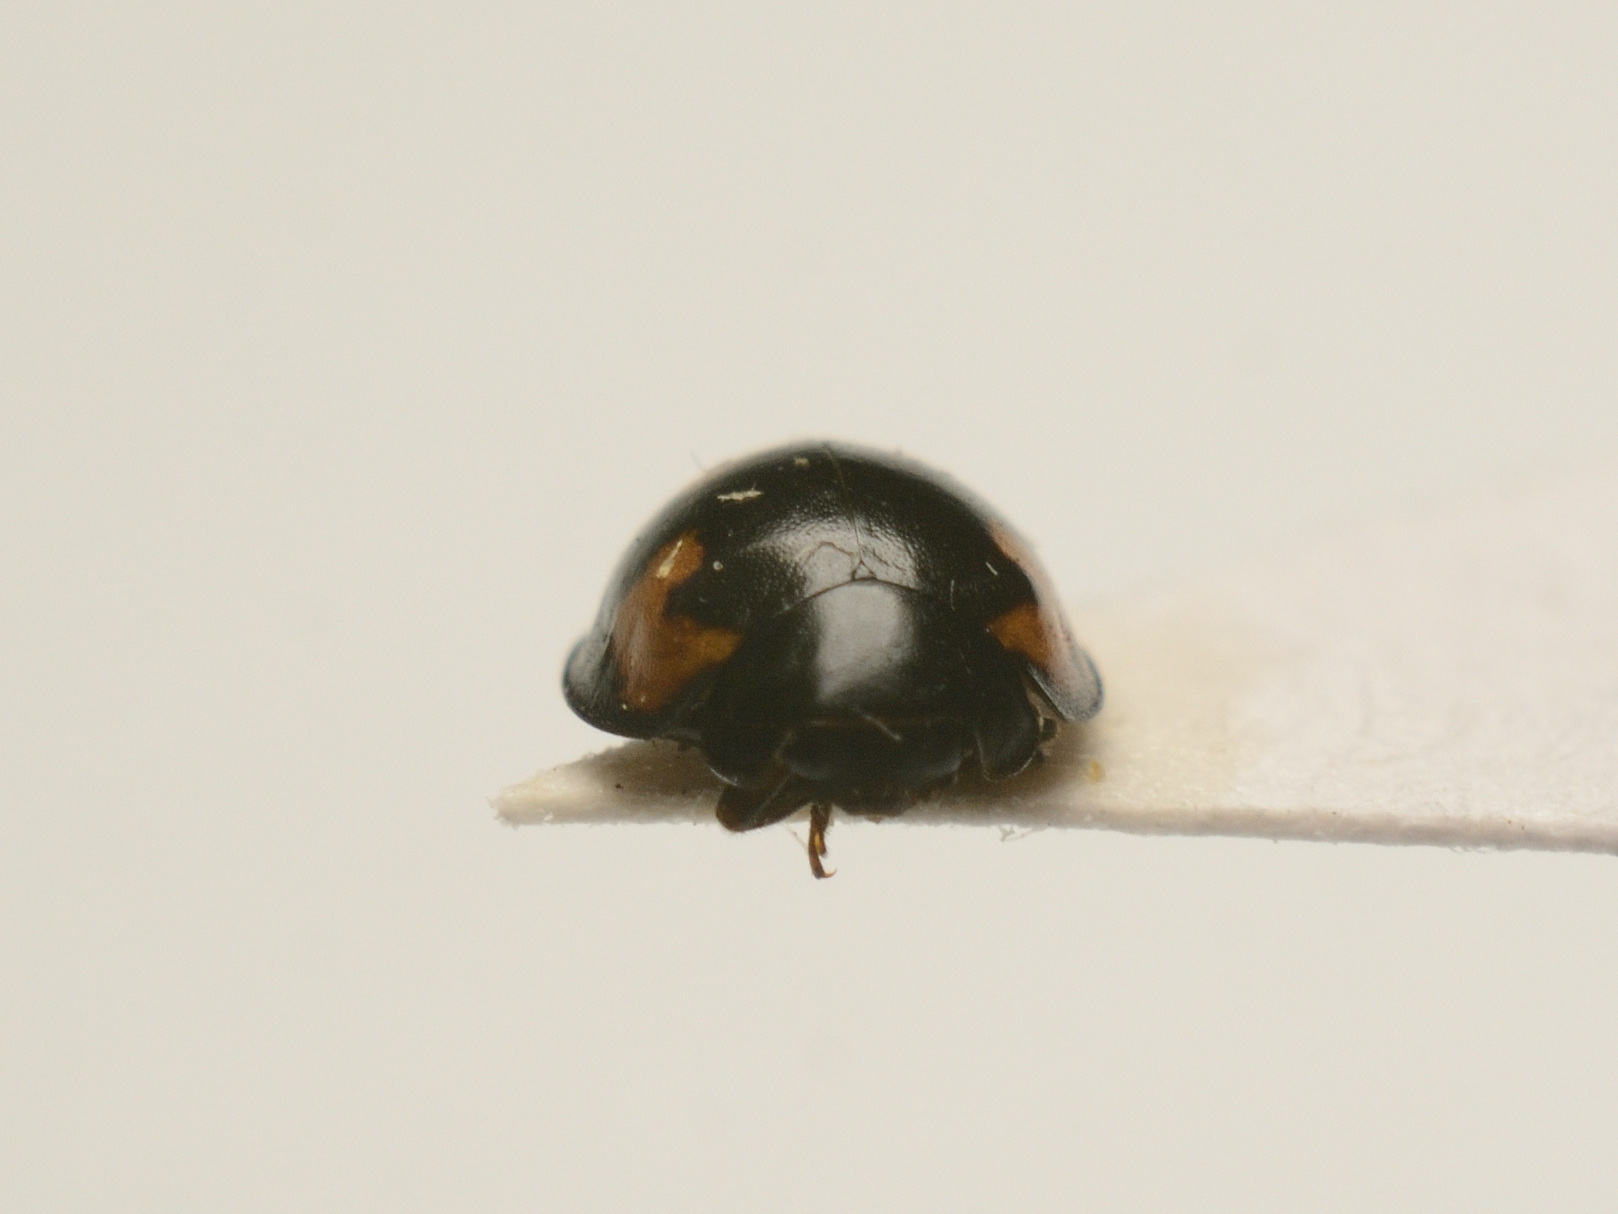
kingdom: Animalia
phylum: Arthropoda
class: Insecta
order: Coleoptera
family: Coccinellidae
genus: Brumus
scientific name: Brumus quadripustulatus
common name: Ladybird beetle
